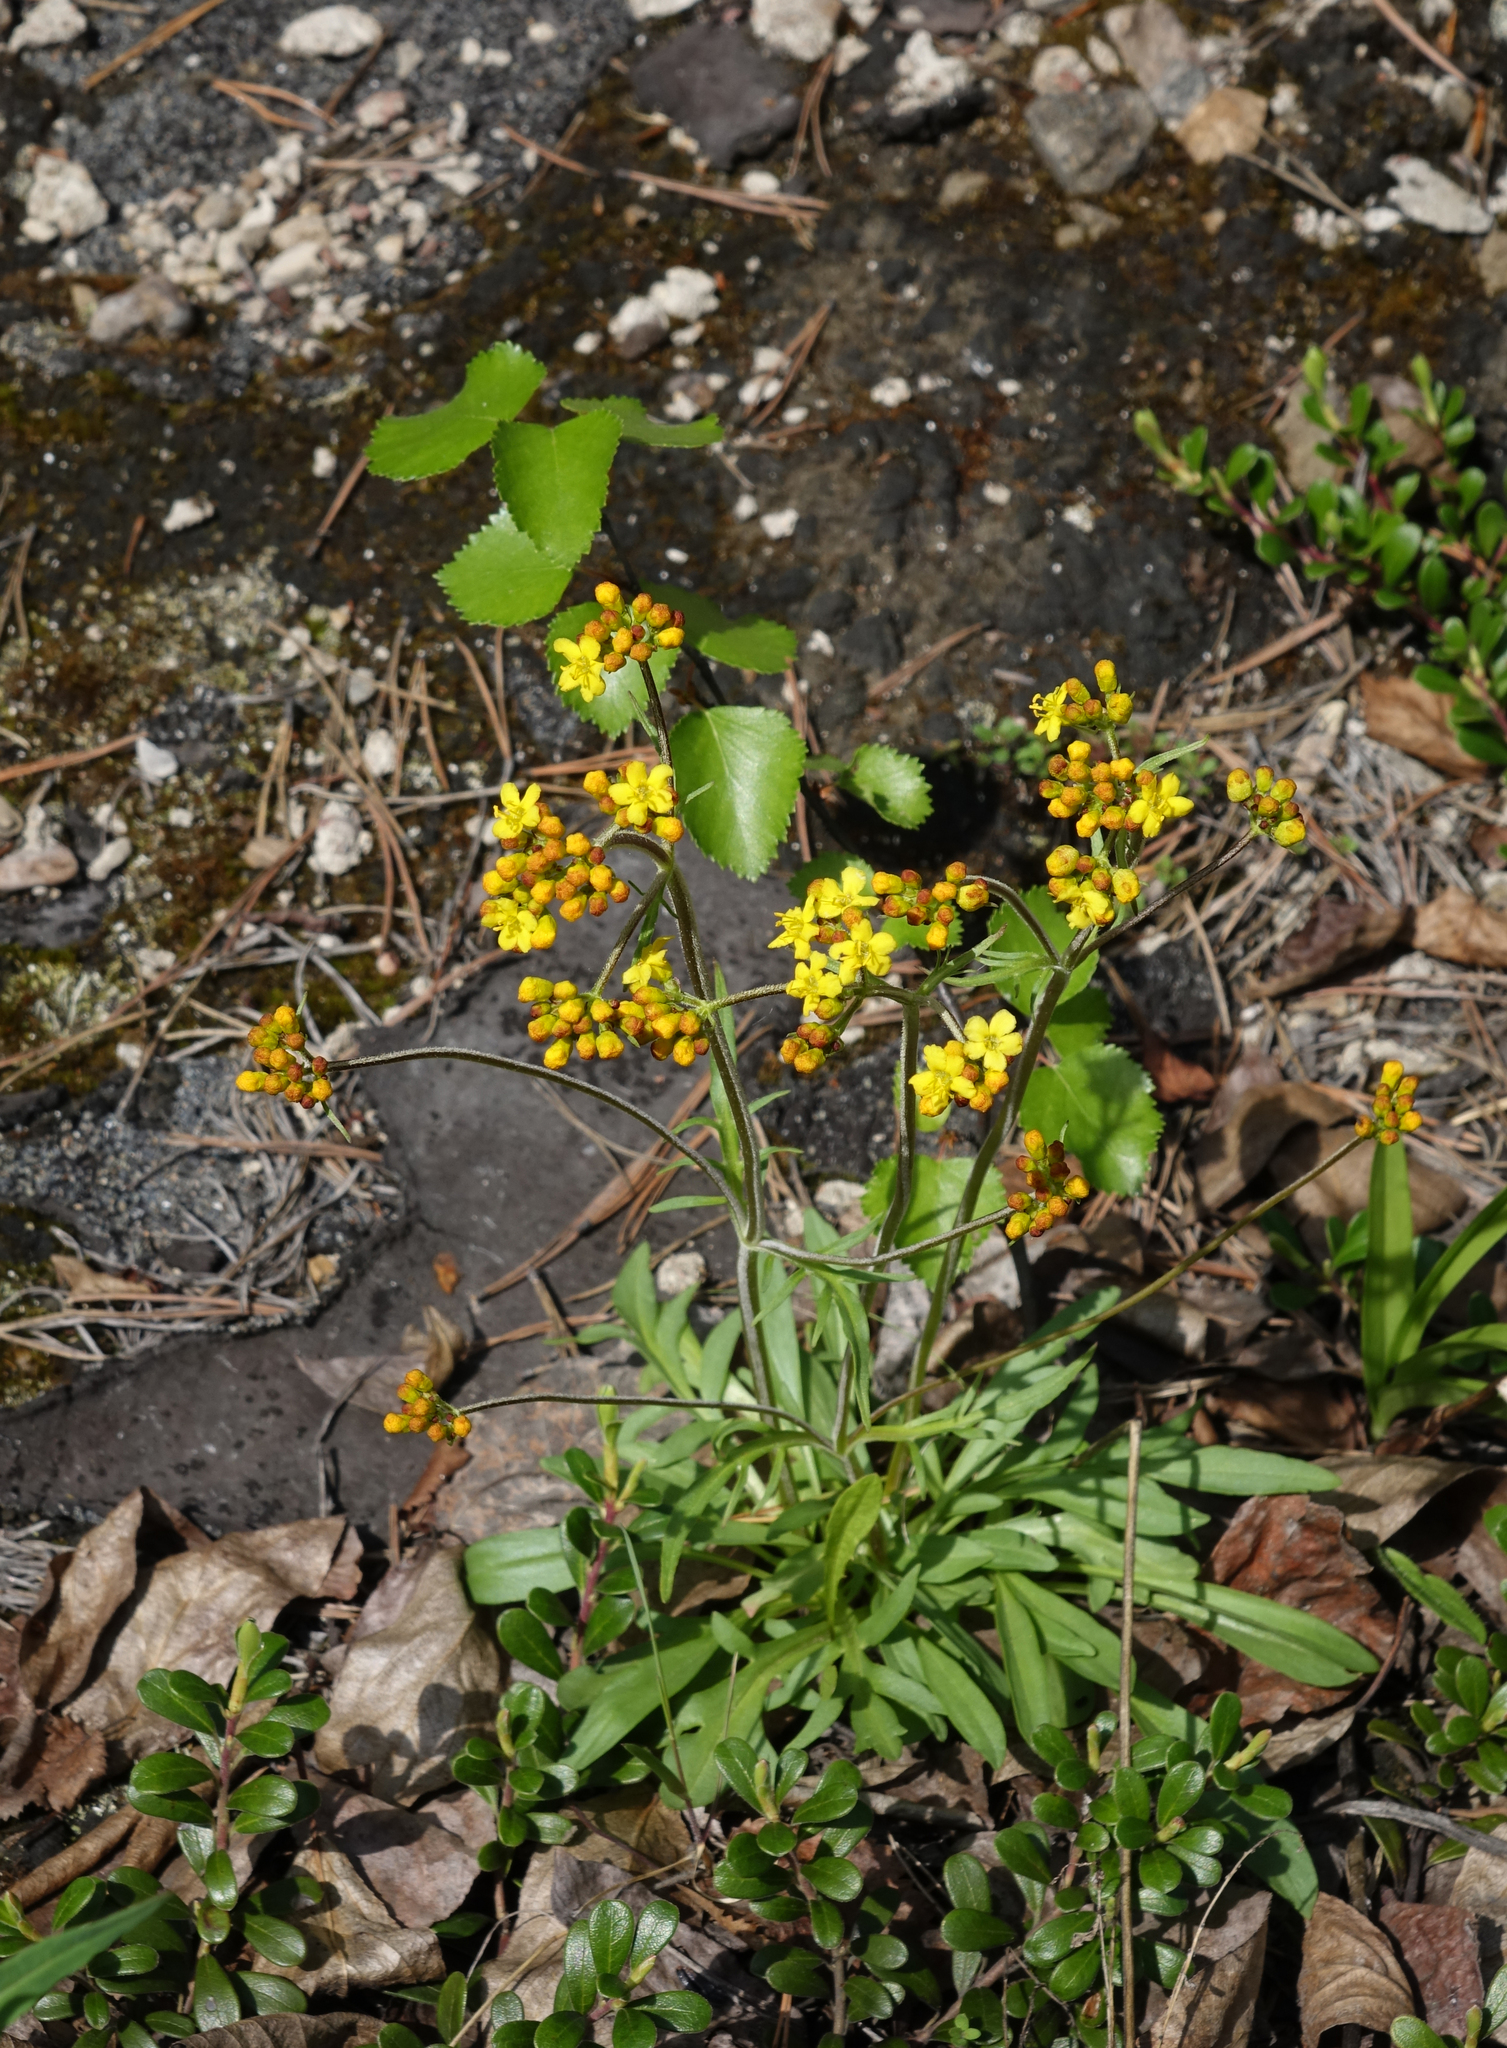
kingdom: Plantae
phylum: Tracheophyta
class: Magnoliopsida
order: Dipsacales
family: Caprifoliaceae
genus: Patrinia
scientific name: Patrinia sibirica
